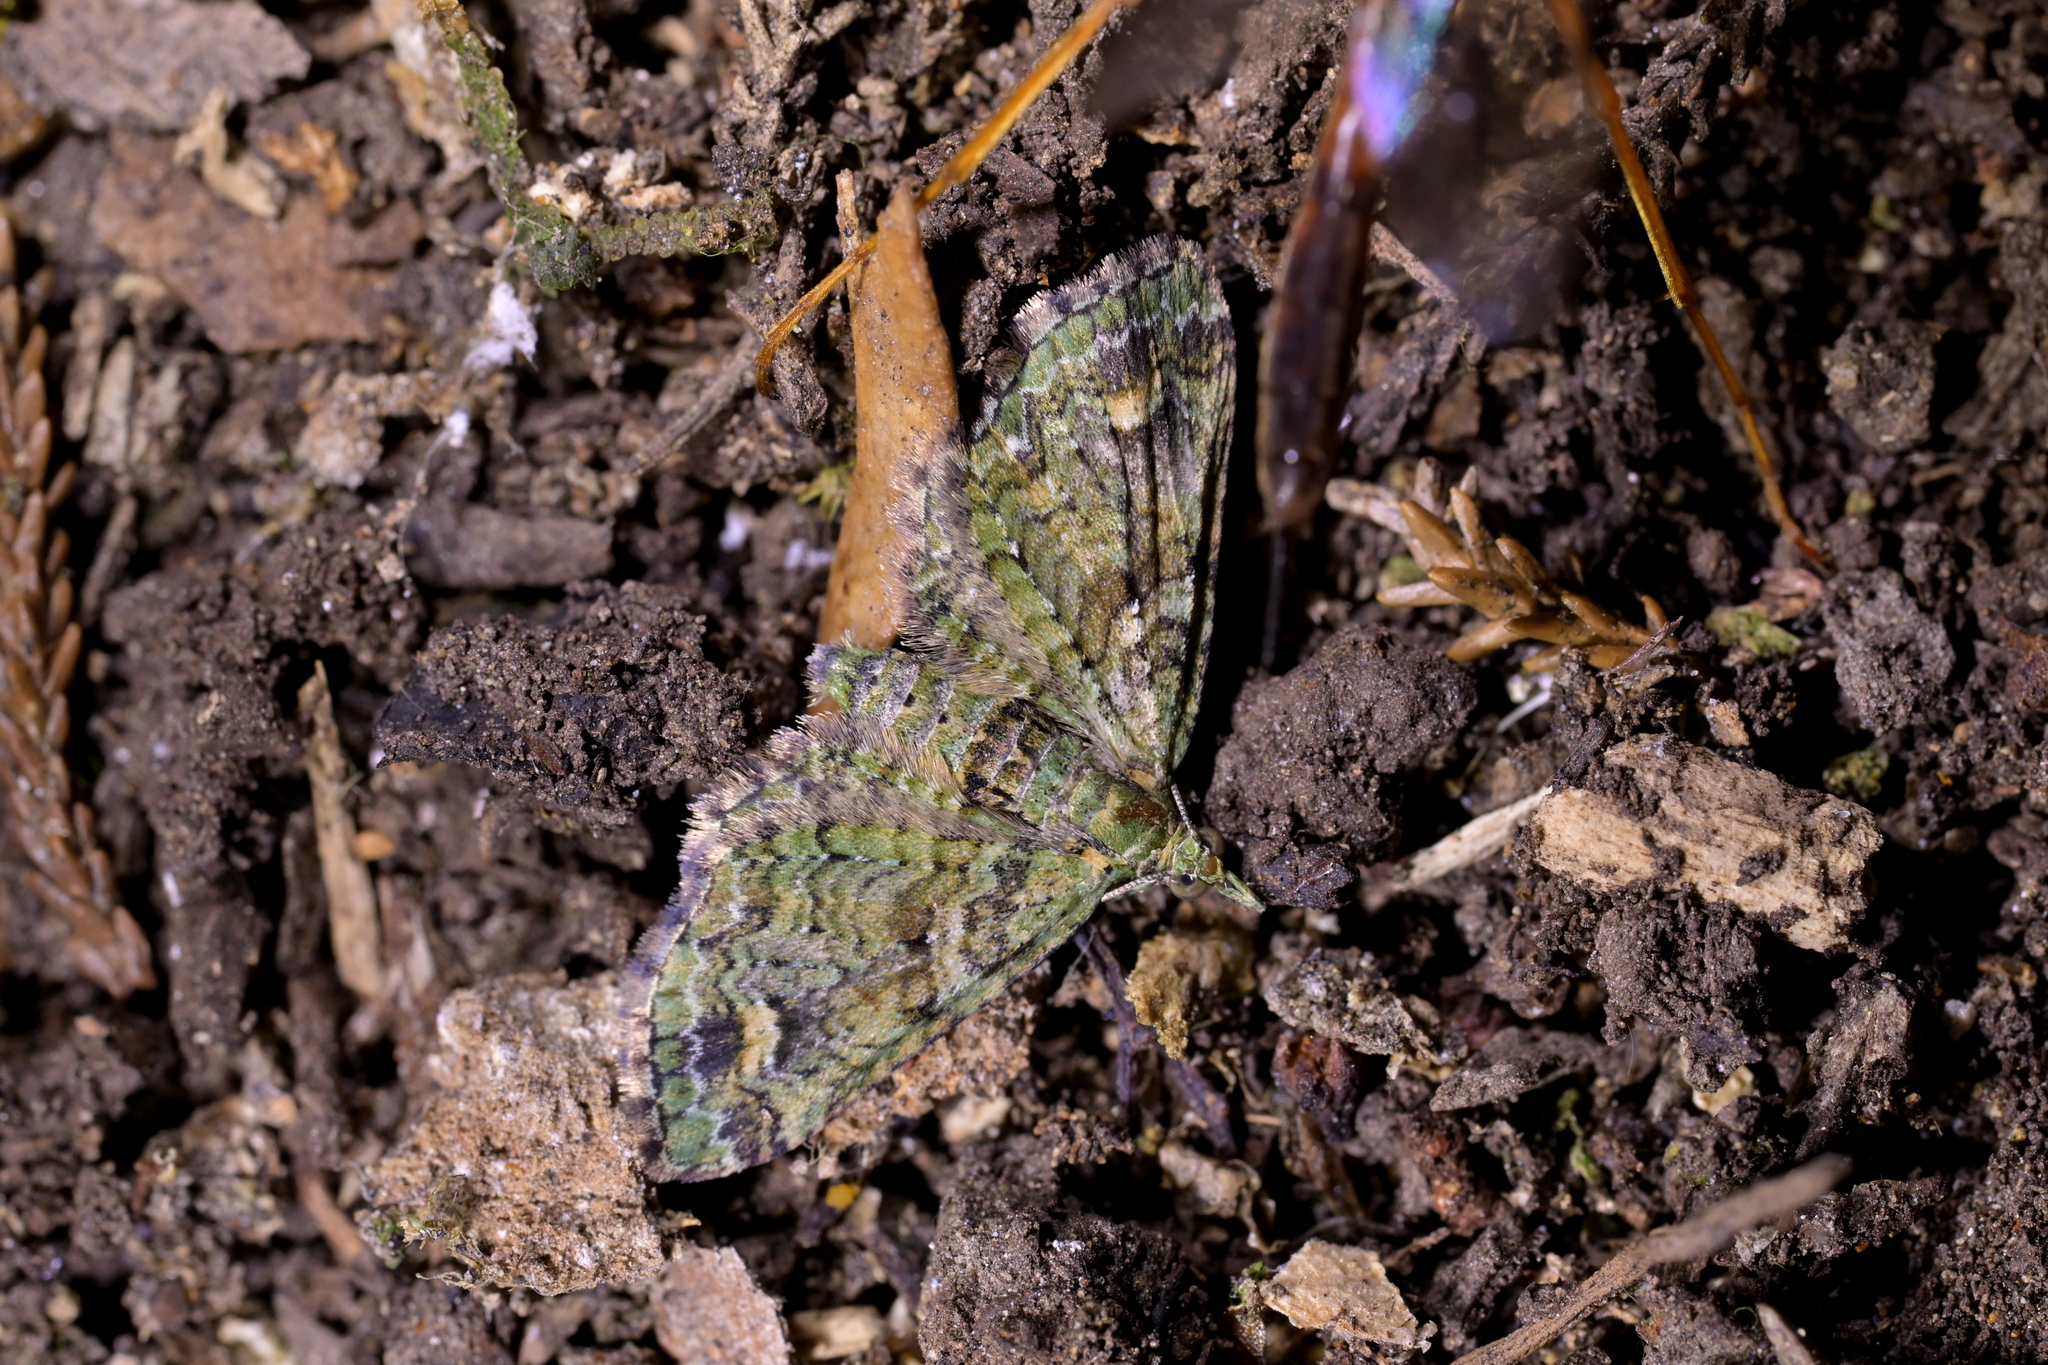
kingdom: Animalia
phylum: Arthropoda
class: Insecta
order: Lepidoptera
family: Geometridae
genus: Idaea
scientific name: Idaea mutanda
